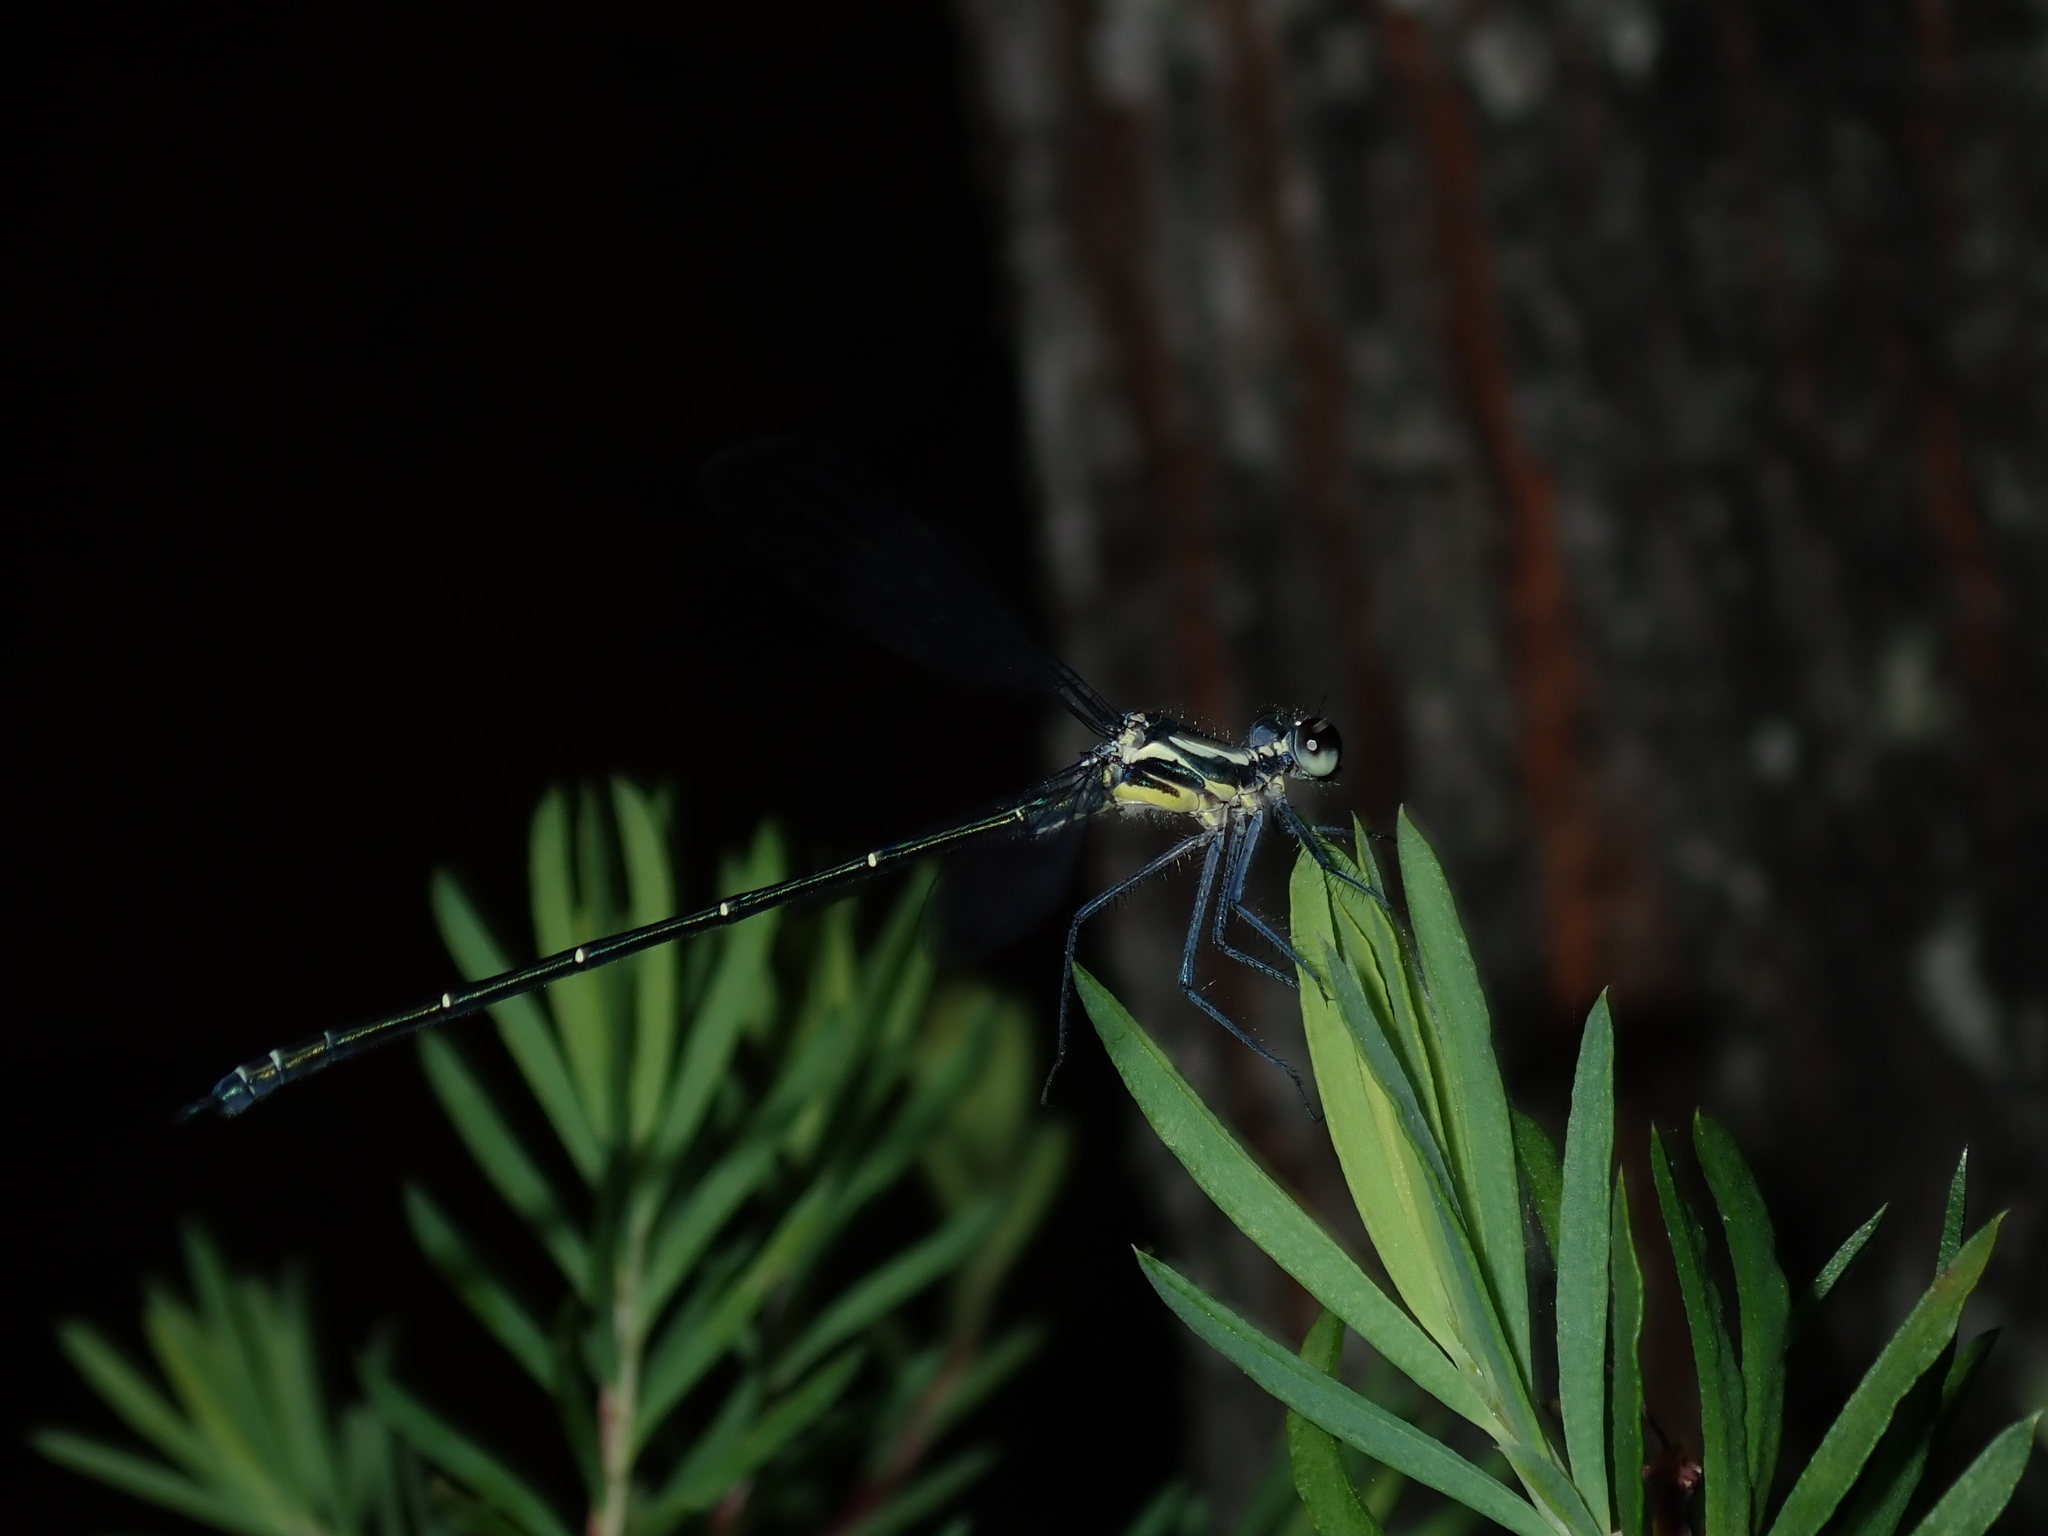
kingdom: Animalia
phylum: Arthropoda
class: Insecta
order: Odonata
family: Argiolestidae
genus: Austroargiolestes
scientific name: Austroargiolestes icteromelas
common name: Common flatwing
